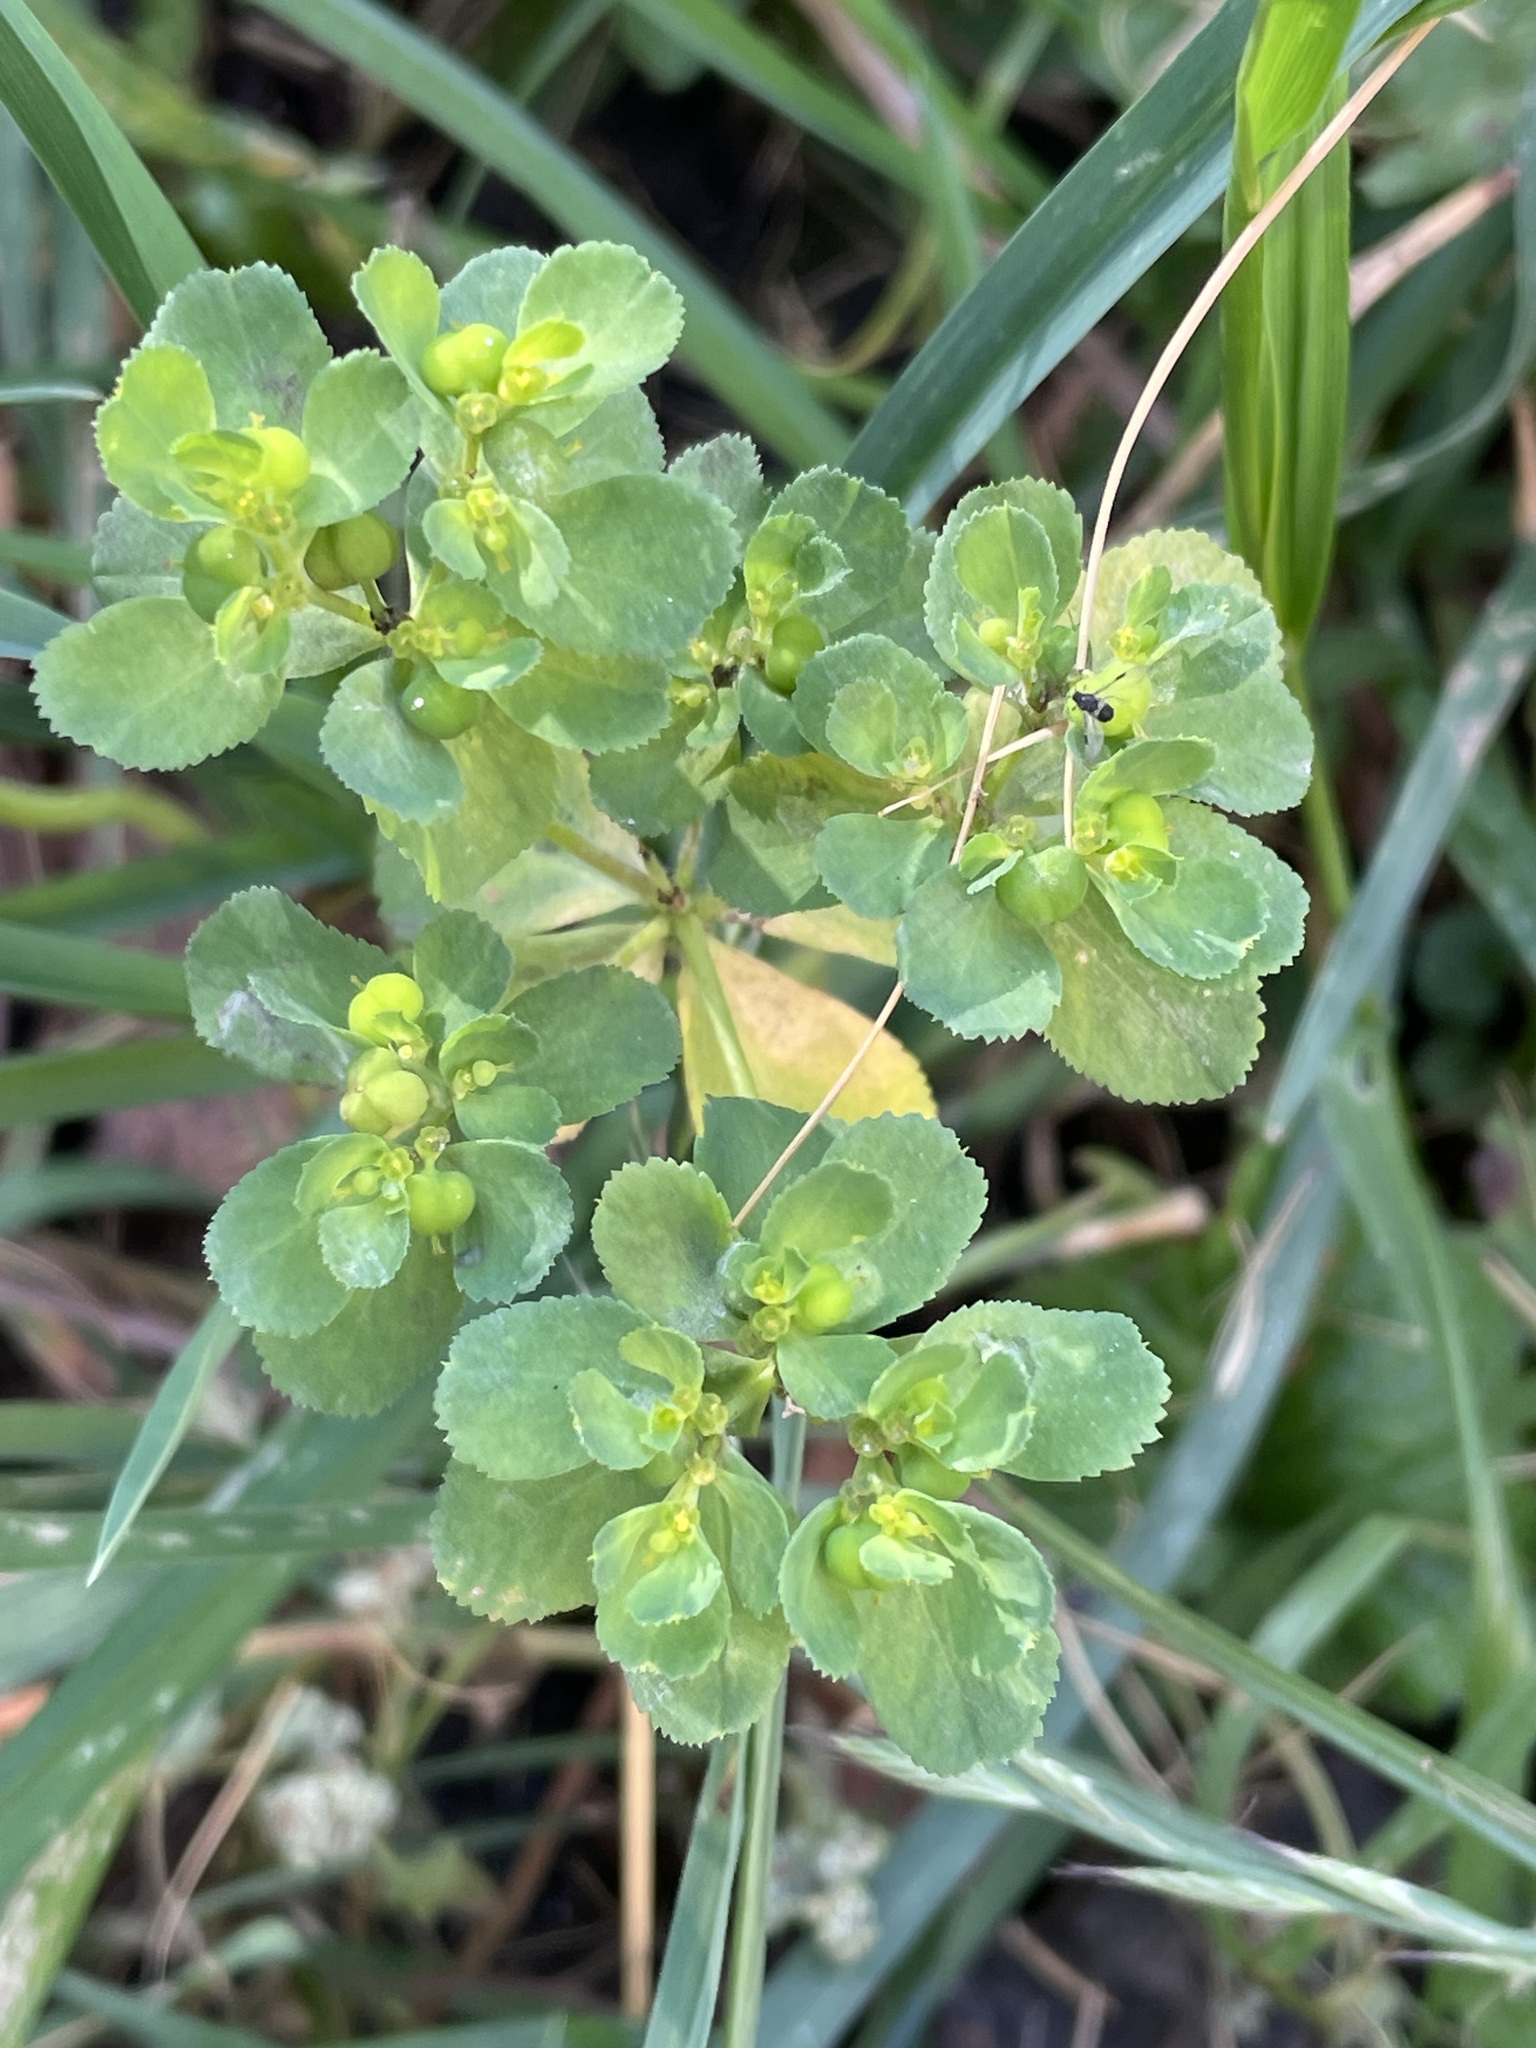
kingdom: Plantae
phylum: Tracheophyta
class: Magnoliopsida
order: Malpighiales
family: Euphorbiaceae
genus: Euphorbia
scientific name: Euphorbia helioscopia
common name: Sun spurge
